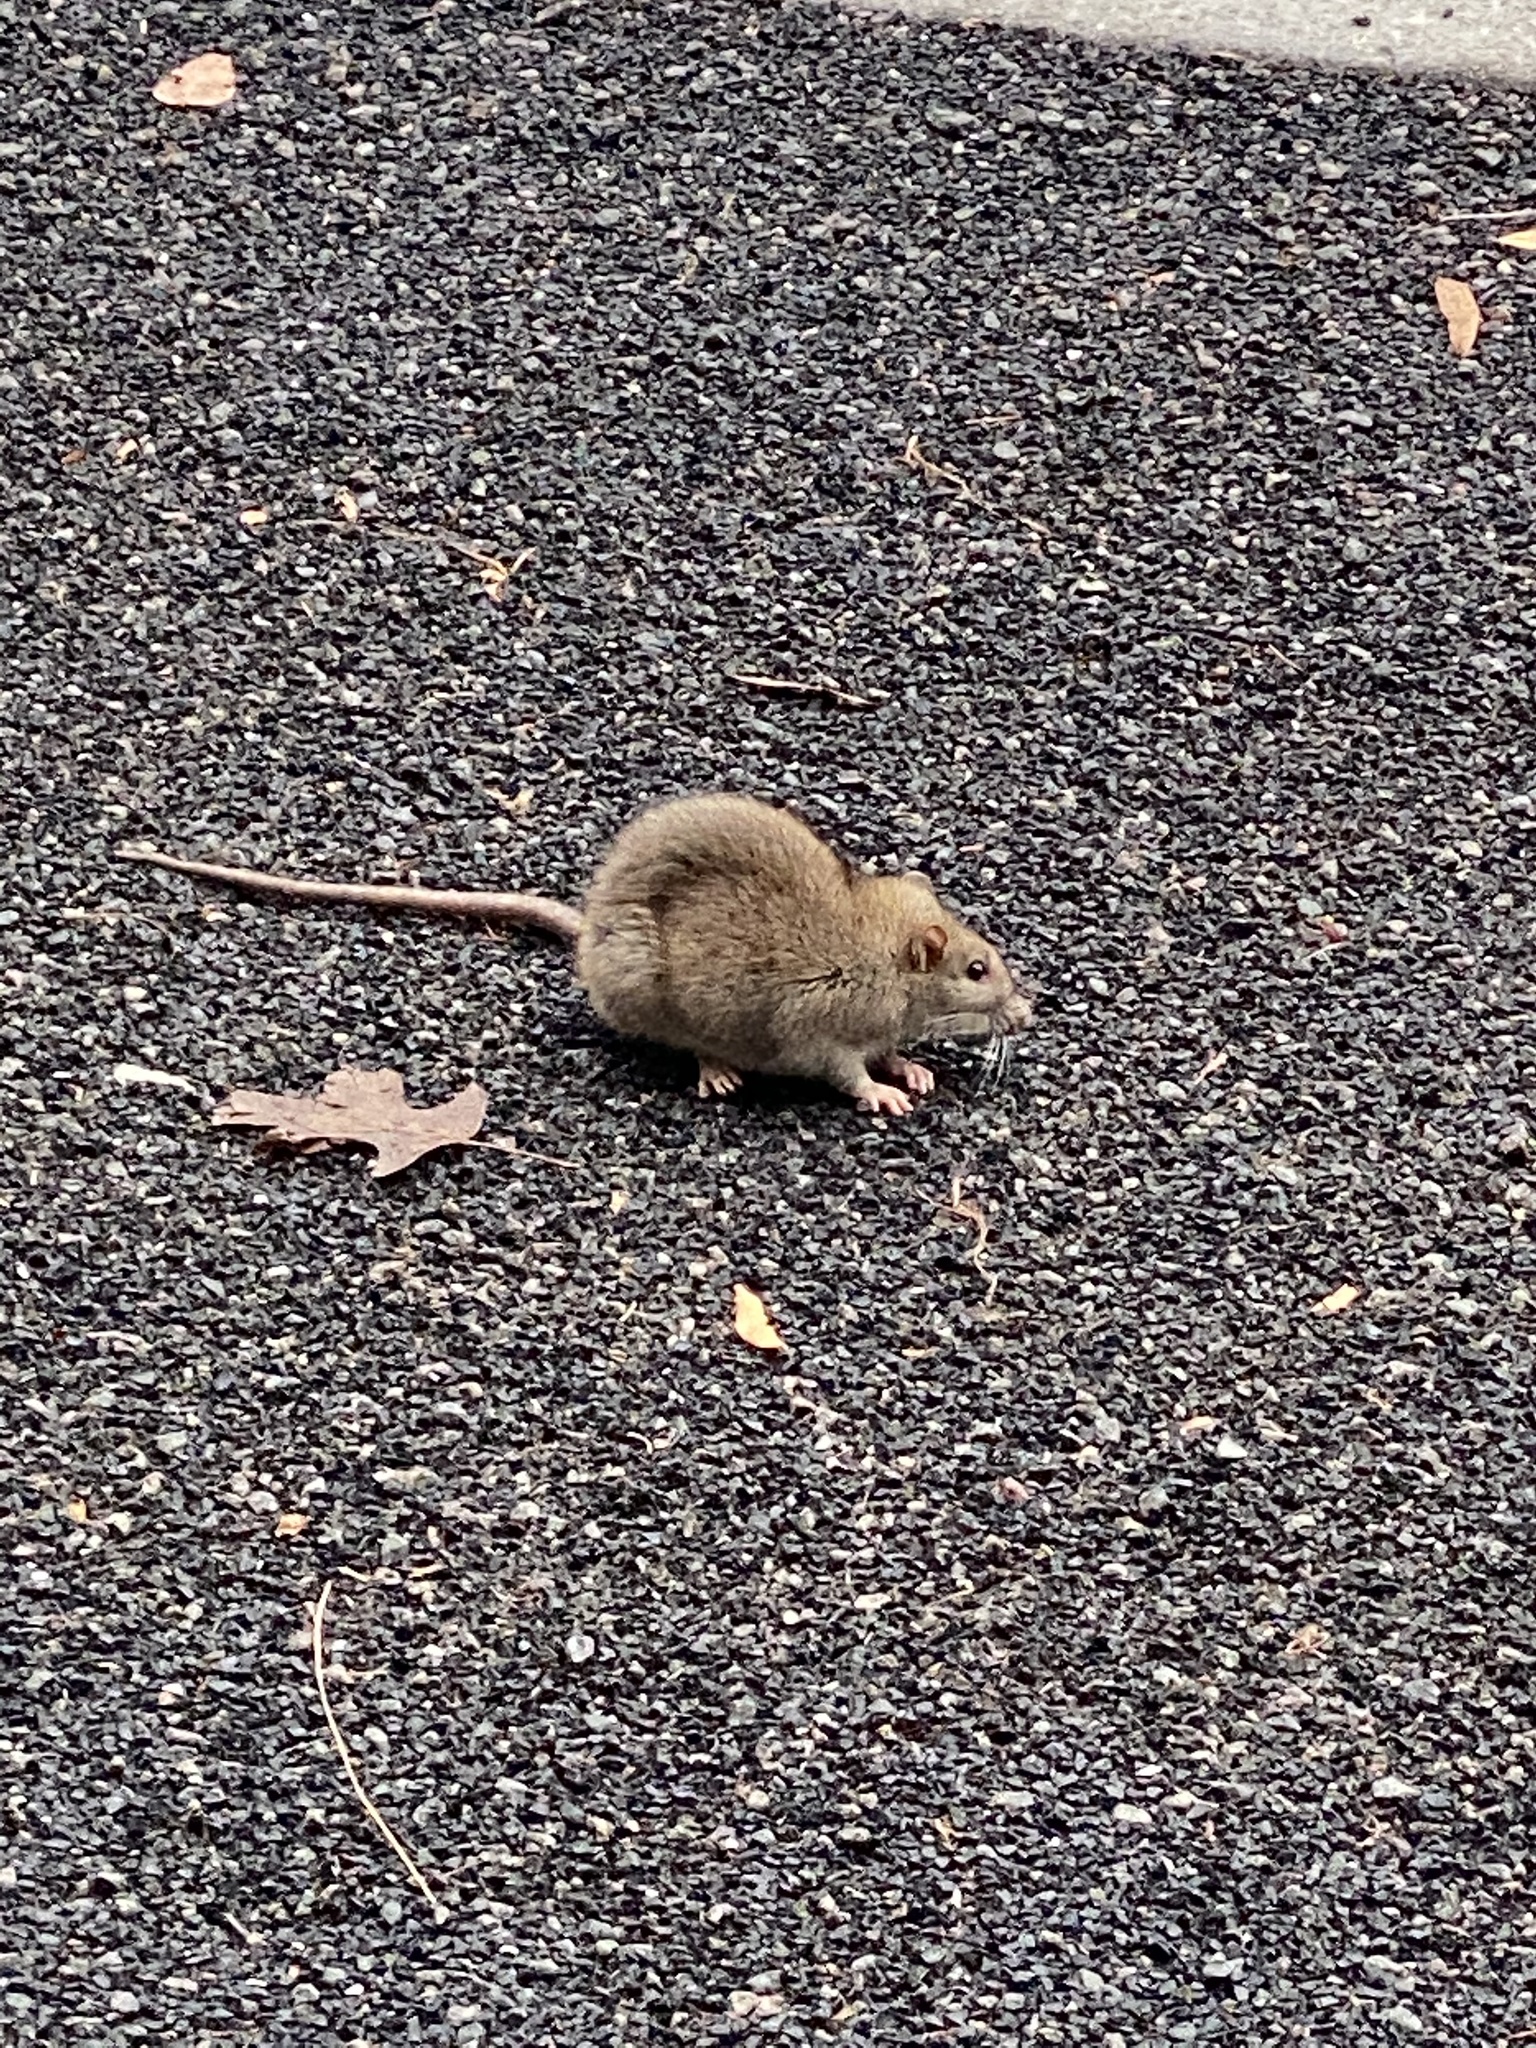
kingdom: Animalia
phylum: Chordata
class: Mammalia
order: Rodentia
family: Muridae
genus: Rattus
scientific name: Rattus norvegicus
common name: Brown rat
